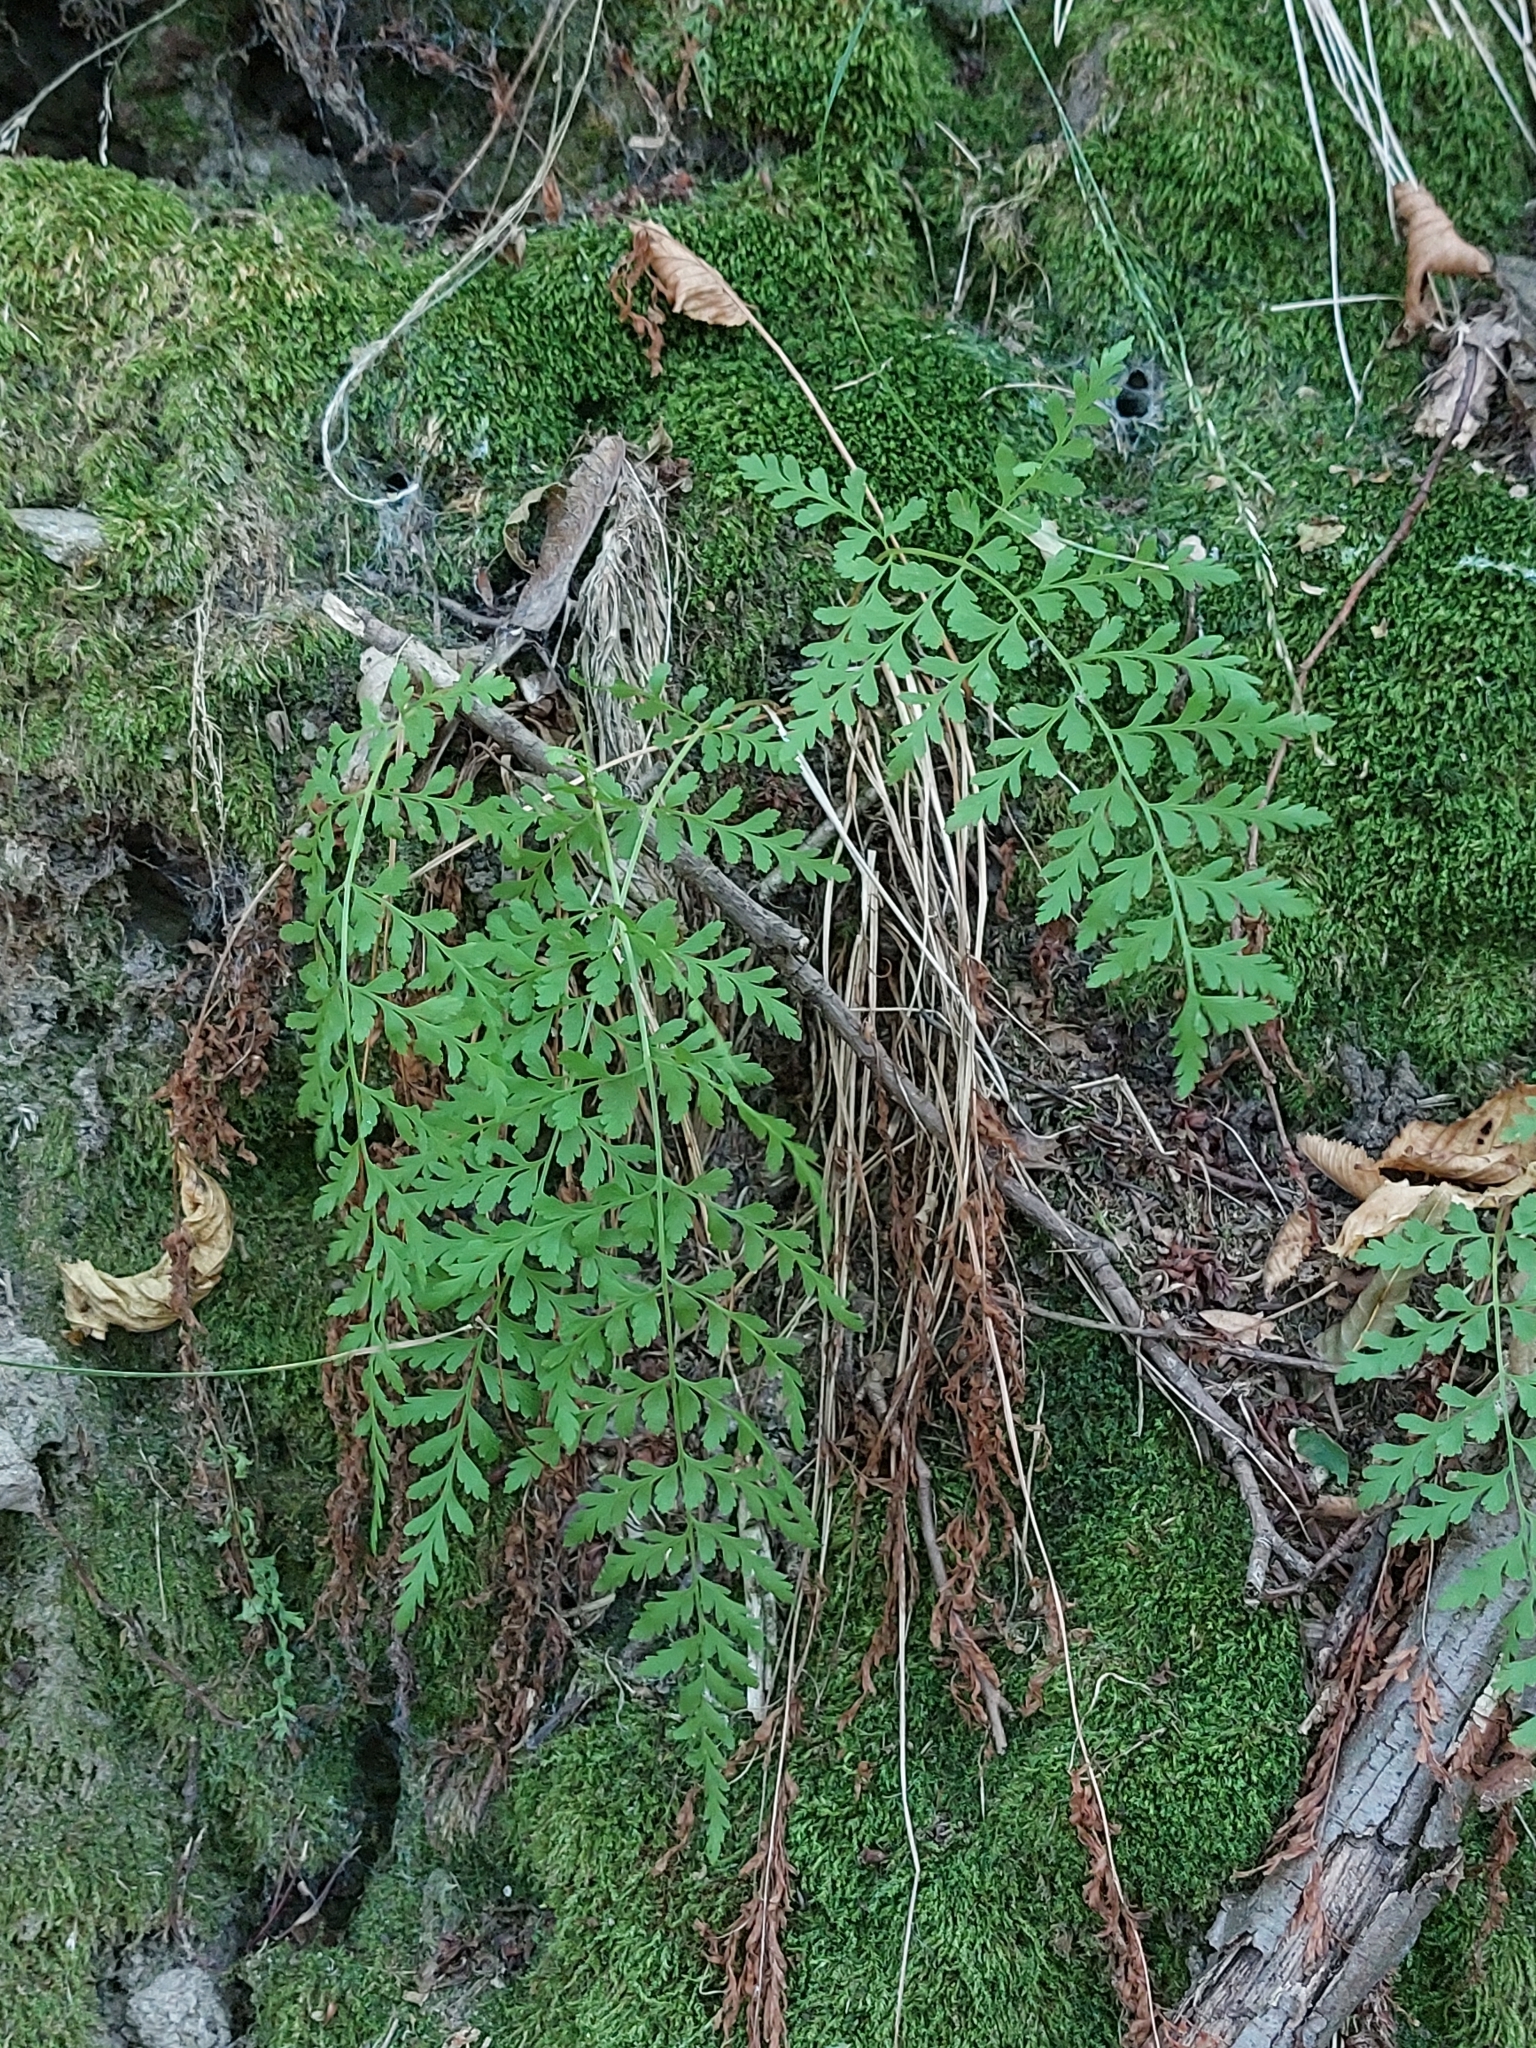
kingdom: Plantae
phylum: Tracheophyta
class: Polypodiopsida
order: Polypodiales
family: Cystopteridaceae
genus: Cystopteris
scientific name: Cystopteris fragilis
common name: Brittle bladder fern
